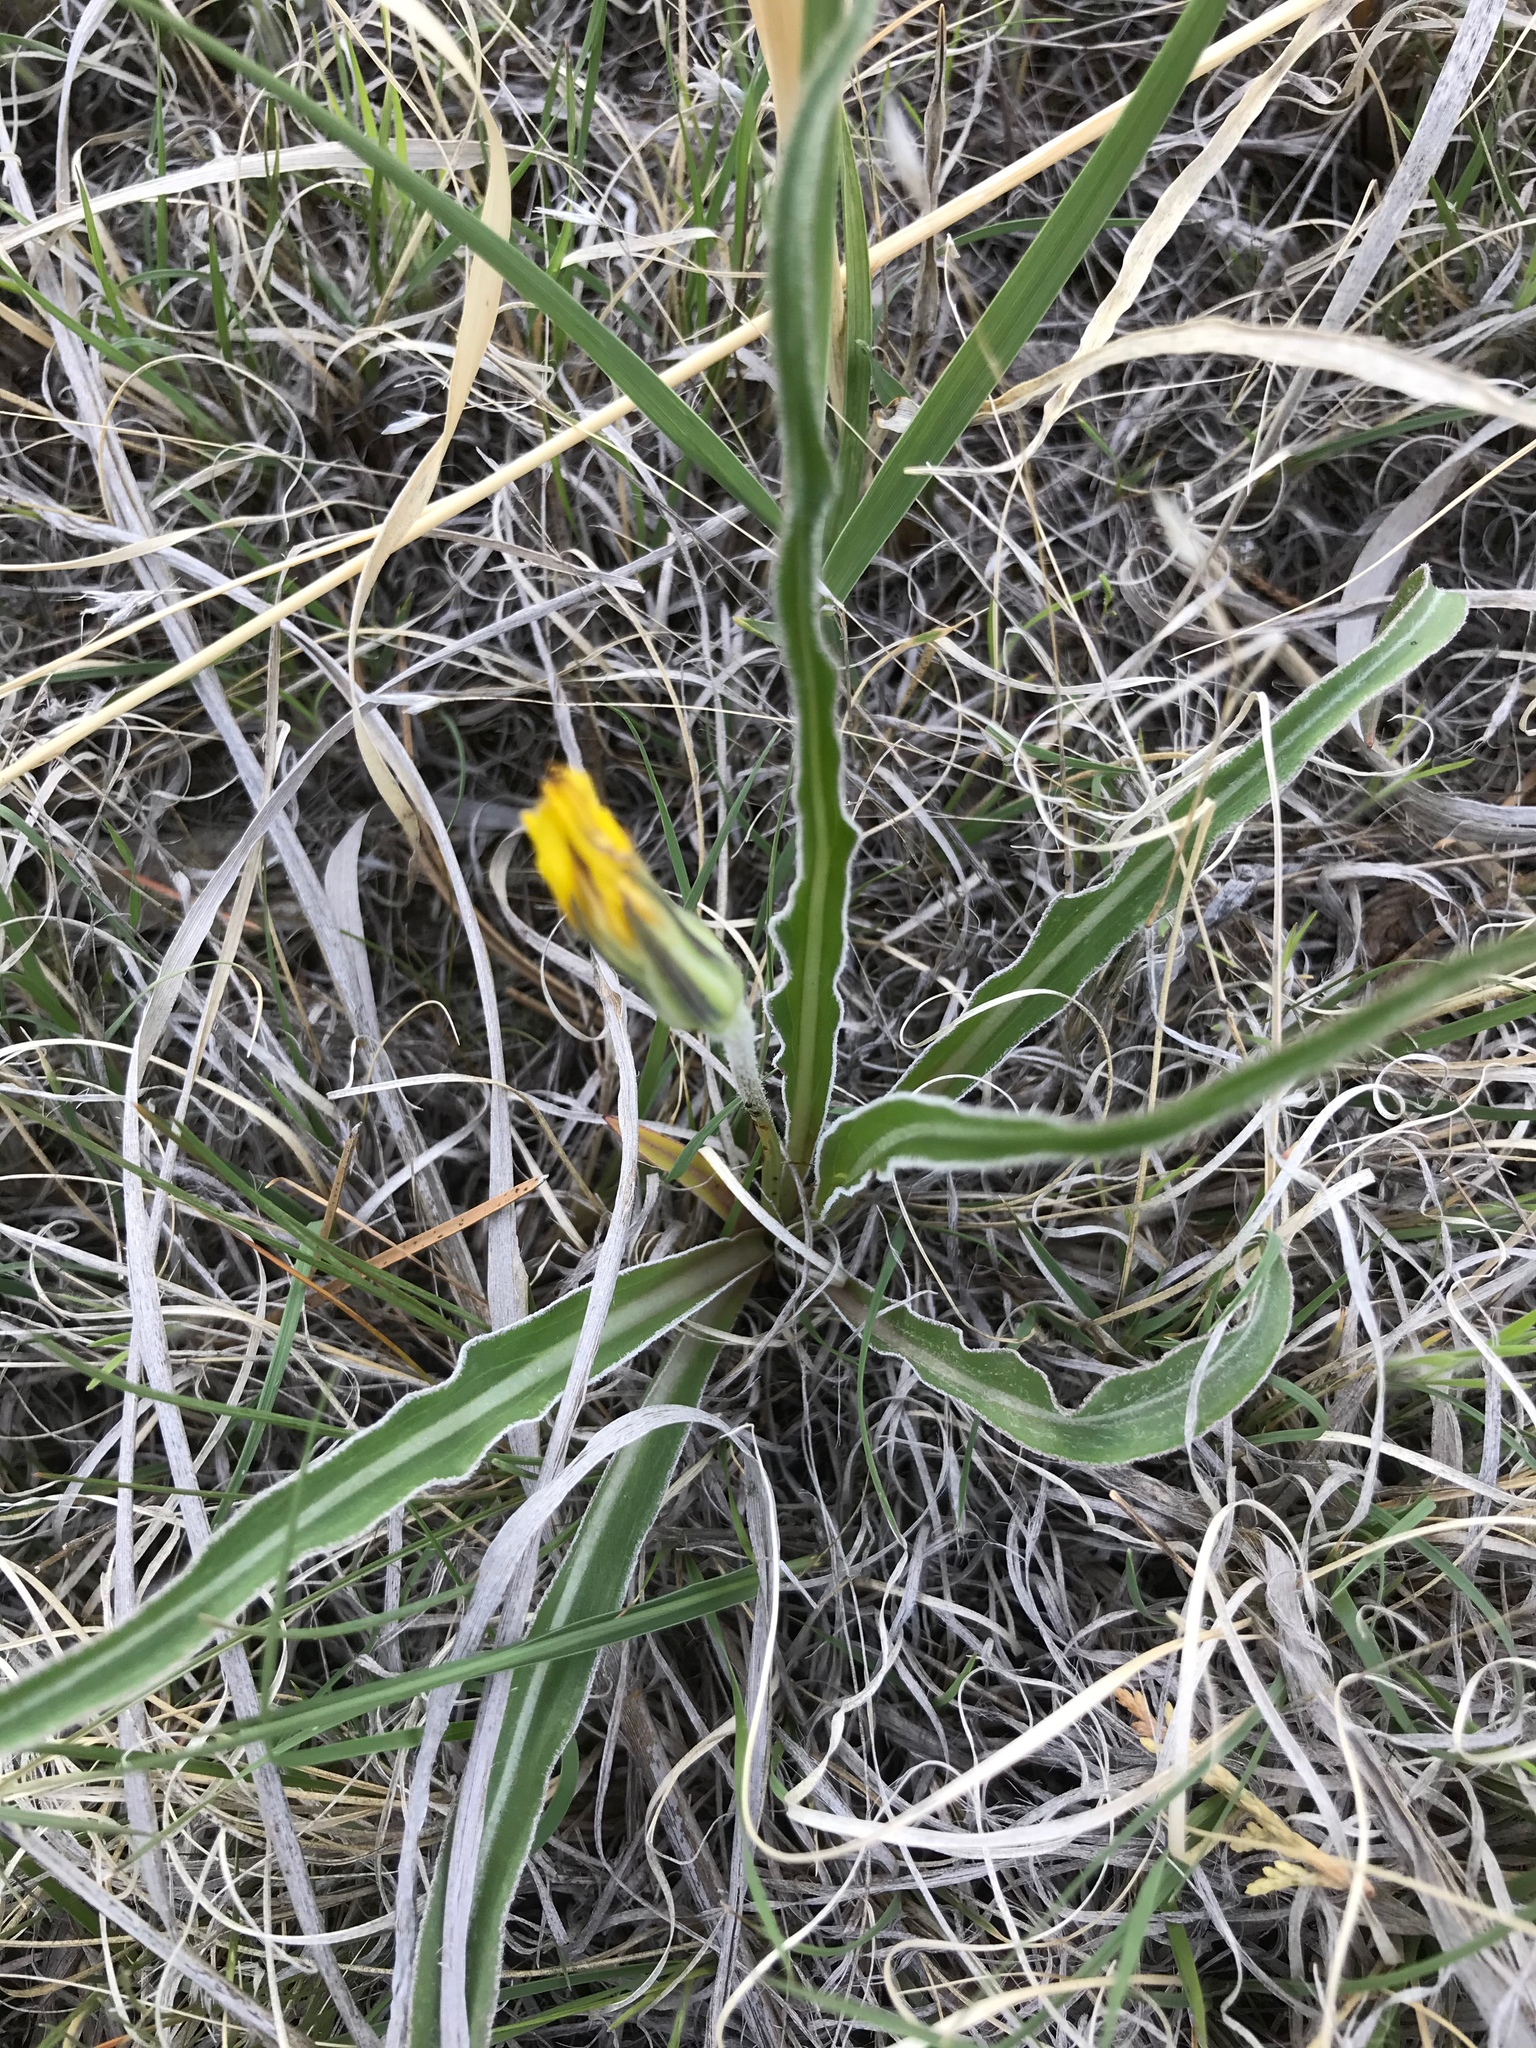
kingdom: Plantae
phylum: Tracheophyta
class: Magnoliopsida
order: Asterales
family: Asteraceae
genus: Microseris
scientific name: Microseris cuspidata
